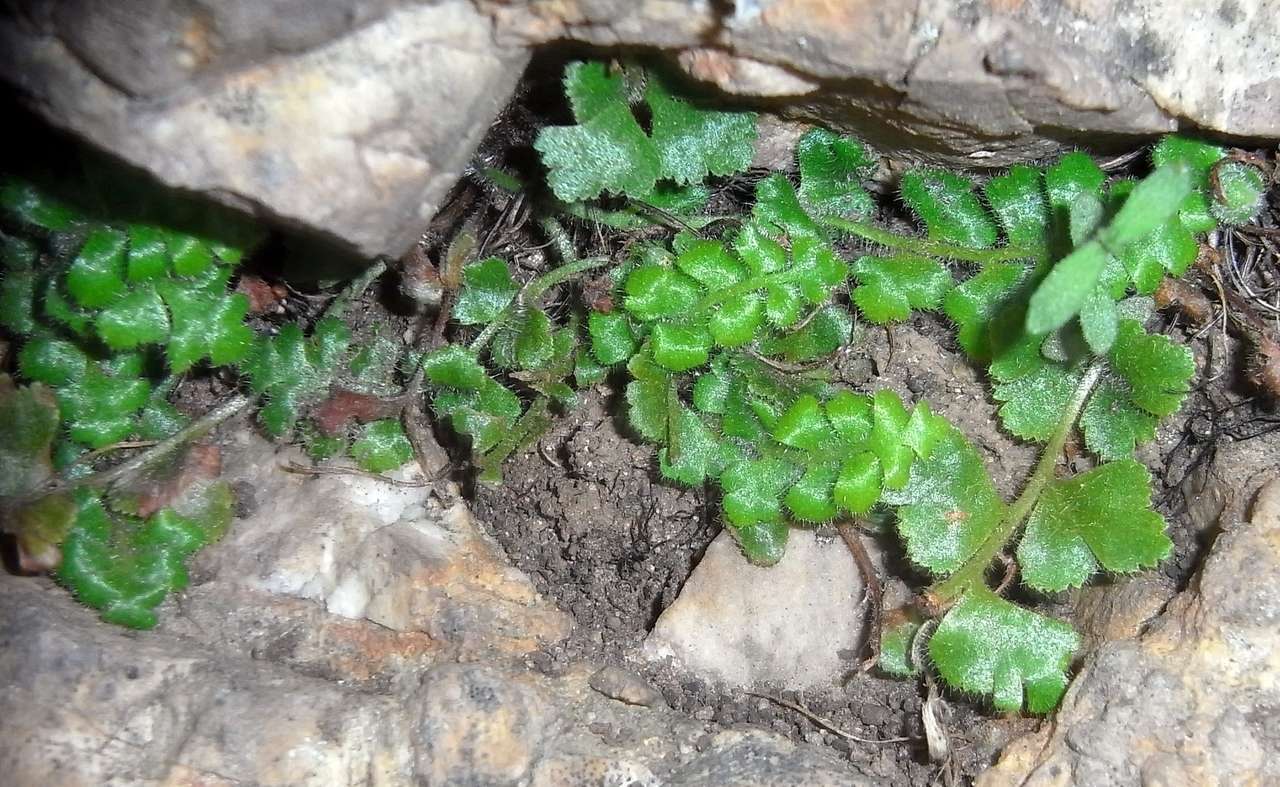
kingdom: Plantae
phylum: Tracheophyta
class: Polypodiopsida
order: Polypodiales
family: Aspleniaceae
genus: Asplenium
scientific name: Asplenium subglandulosum
